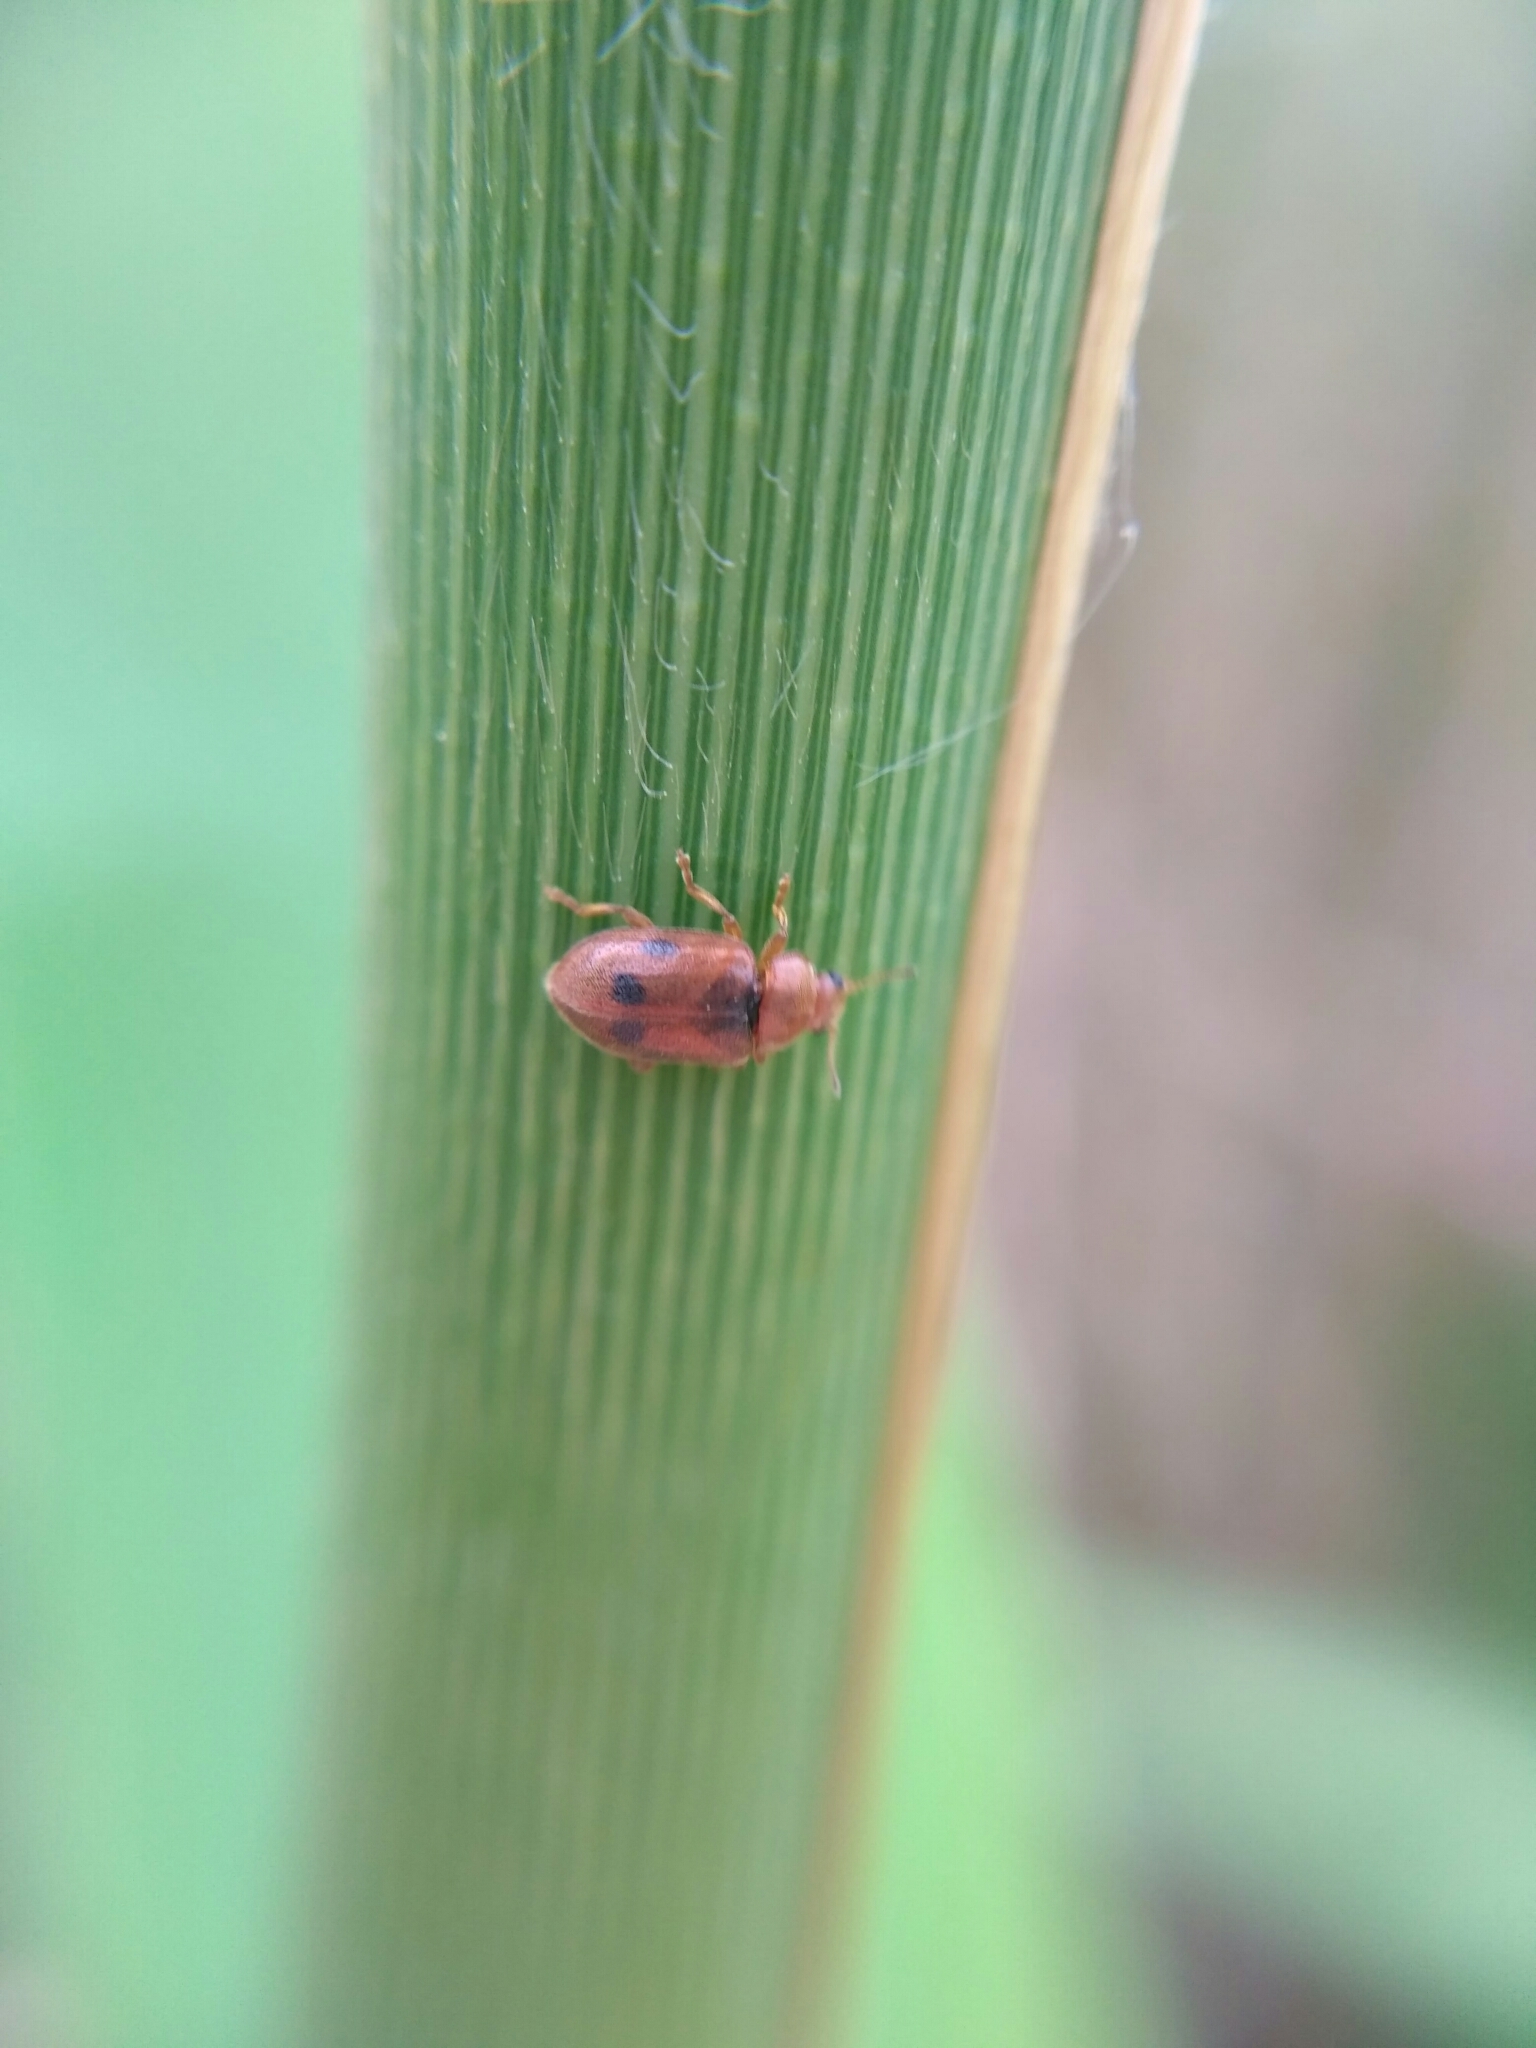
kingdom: Animalia
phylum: Arthropoda
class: Insecta
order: Coleoptera
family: Coccinellidae
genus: Coccidula
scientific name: Coccidula scutellata
